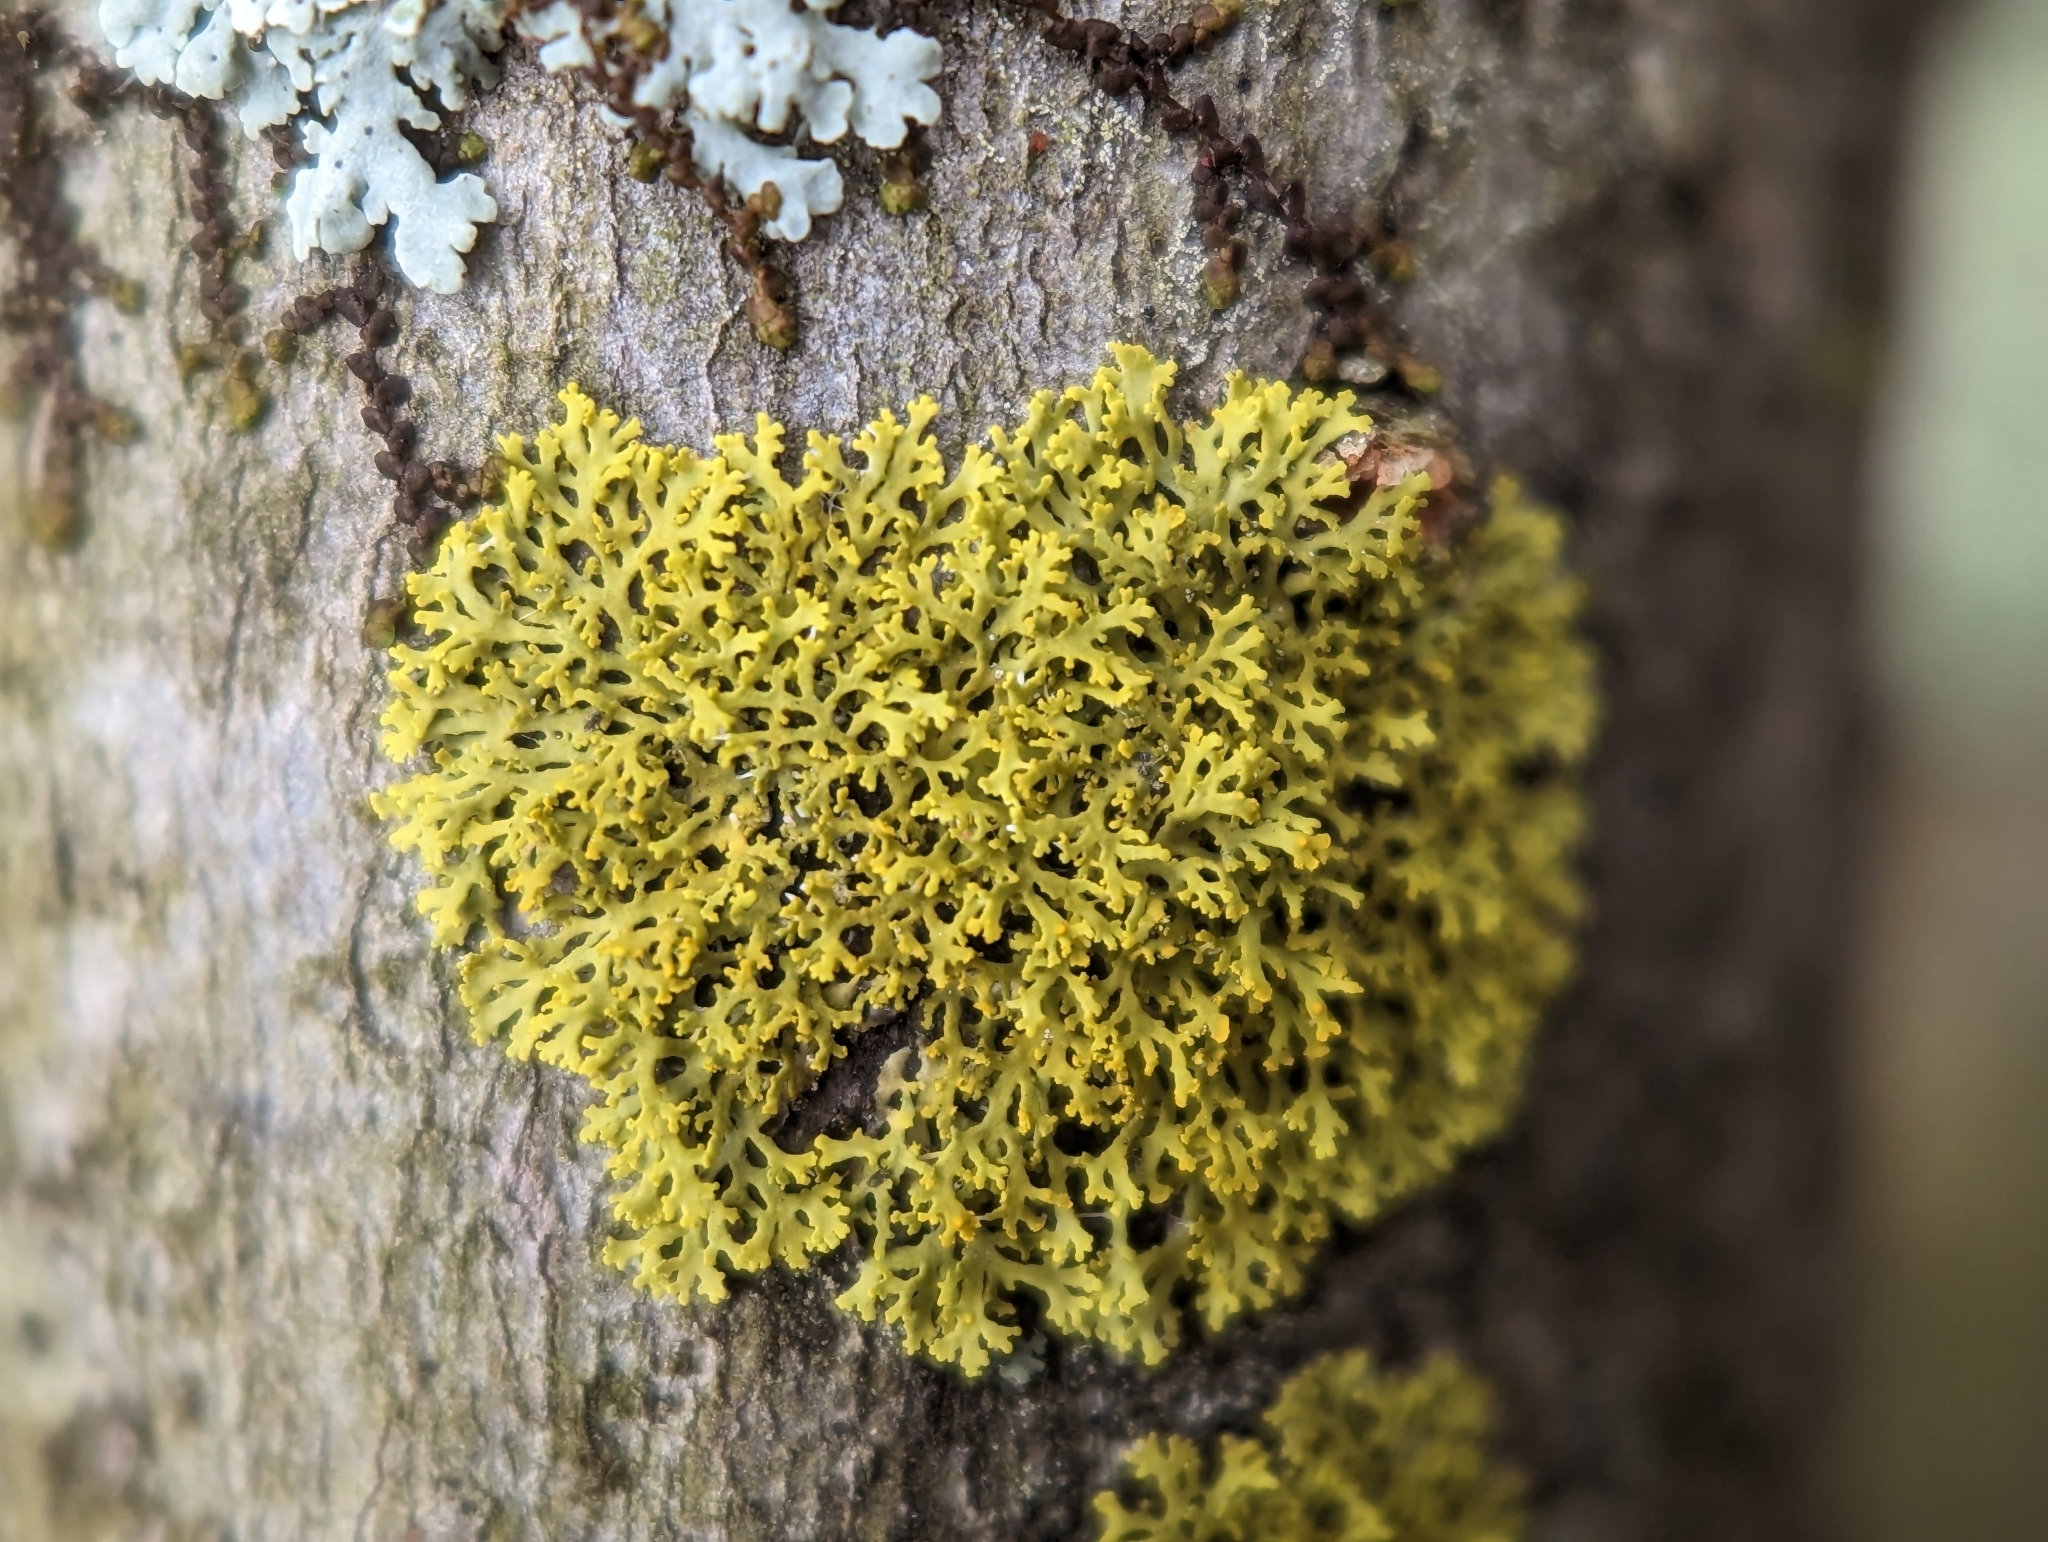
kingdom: Fungi
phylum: Ascomycota
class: Lecanoromycetes
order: Teloschistales
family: Teloschistaceae
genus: Gallowayella
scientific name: Gallowayella weberi
